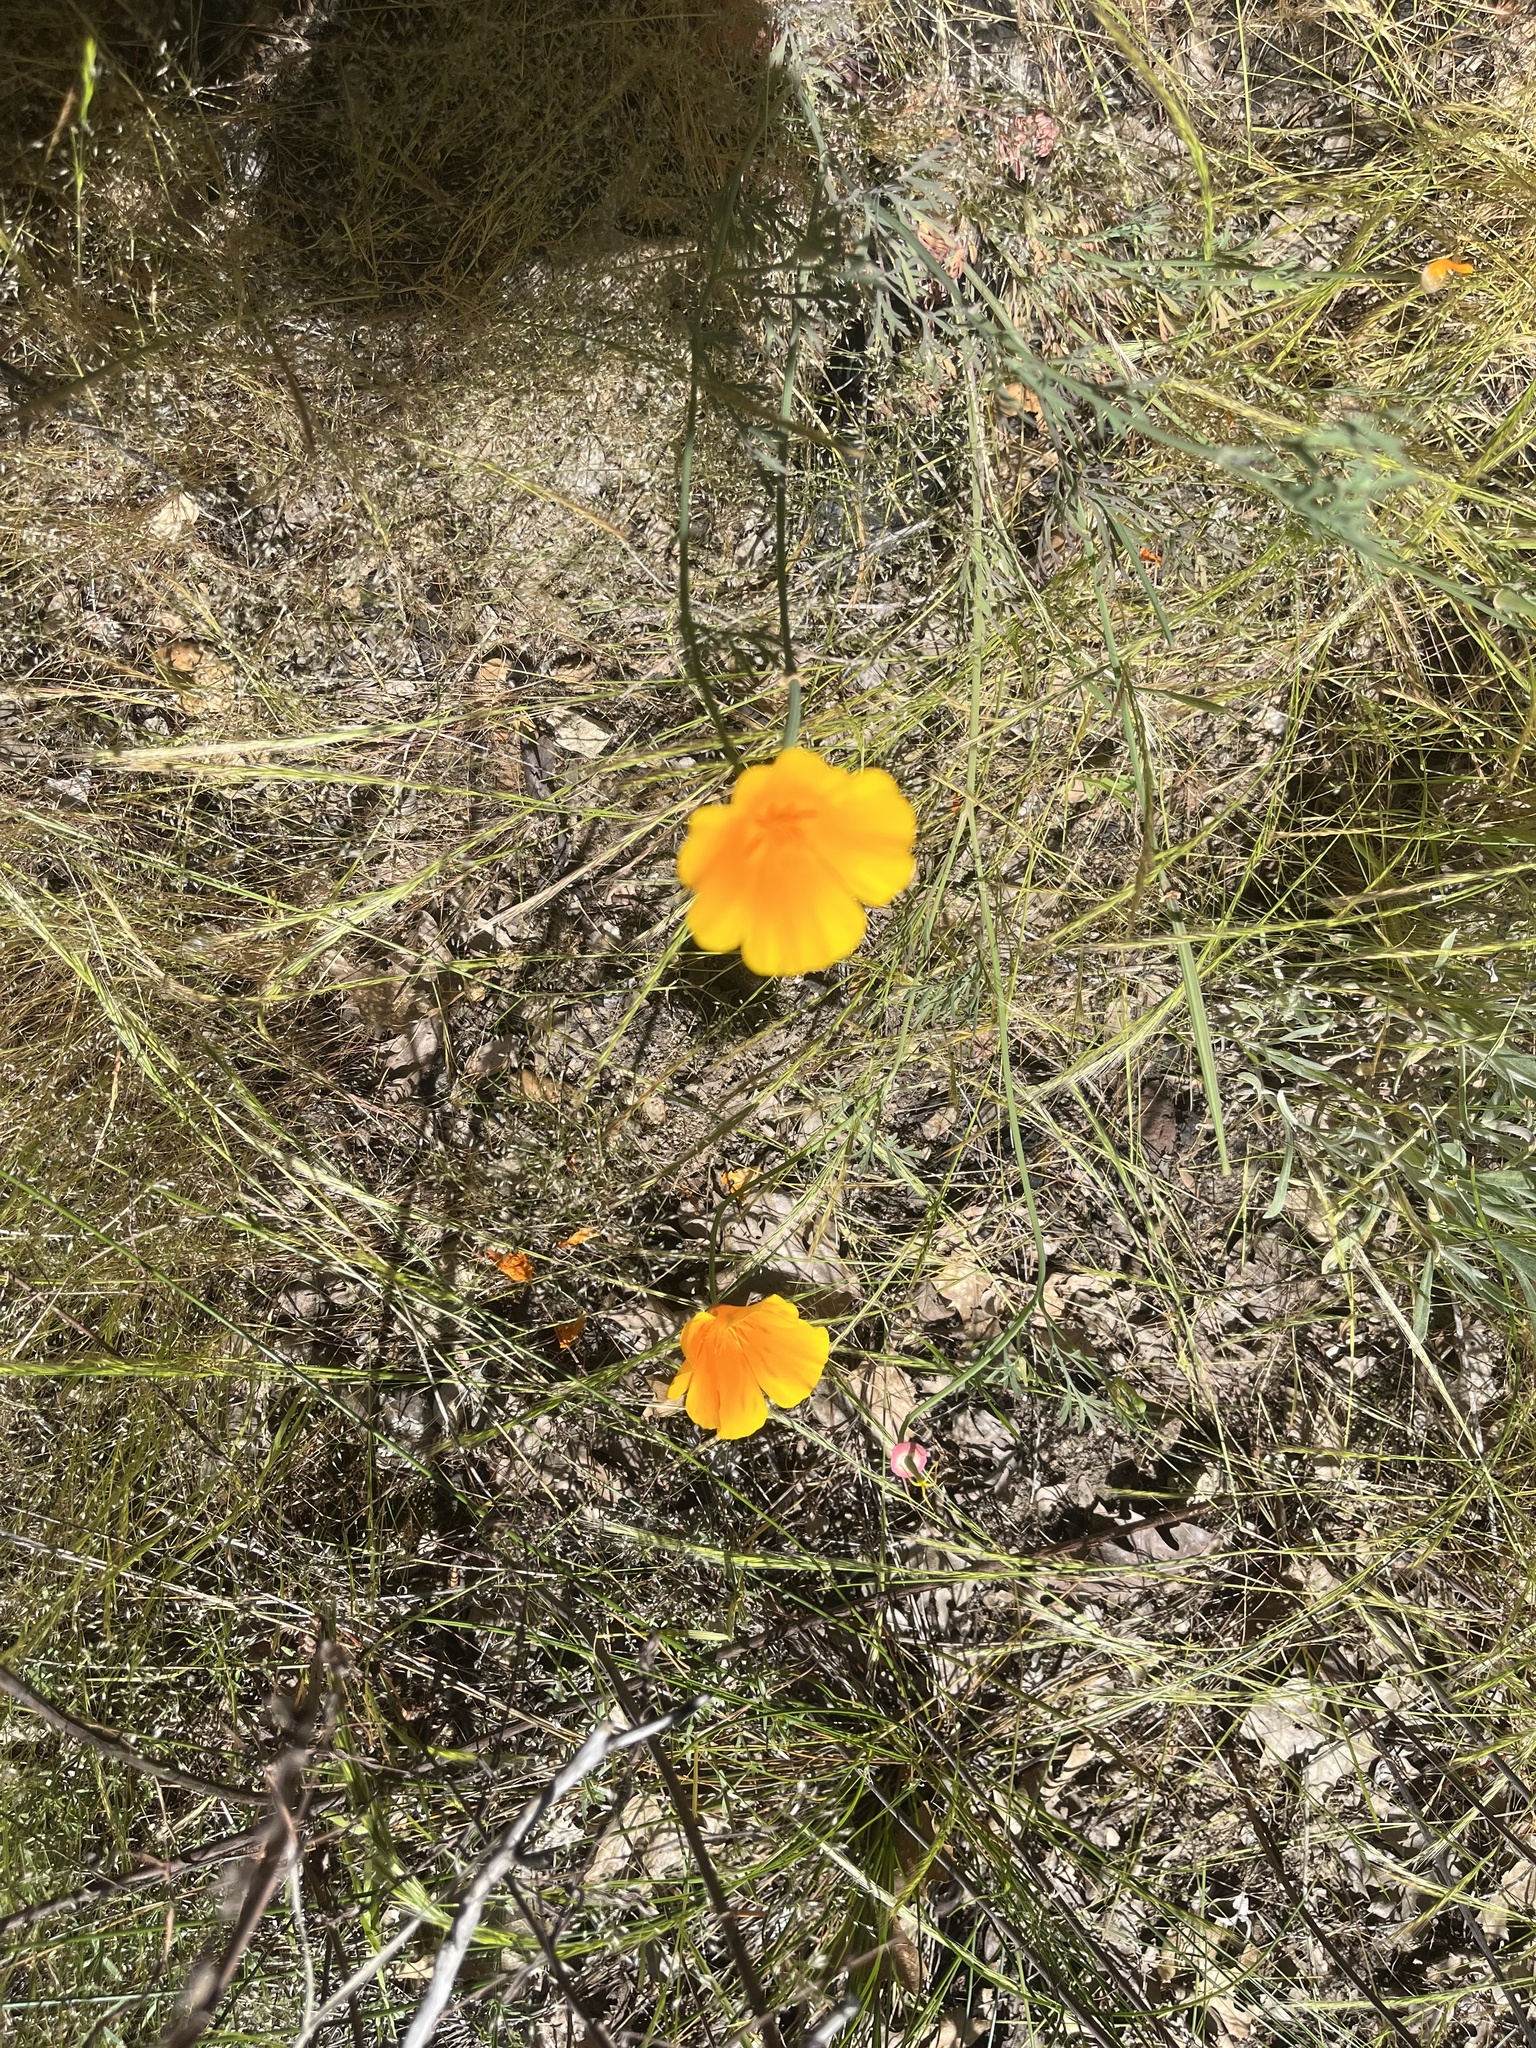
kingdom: Plantae
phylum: Tracheophyta
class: Magnoliopsida
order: Ranunculales
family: Papaveraceae
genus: Eschscholzia
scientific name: Eschscholzia californica
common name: California poppy
